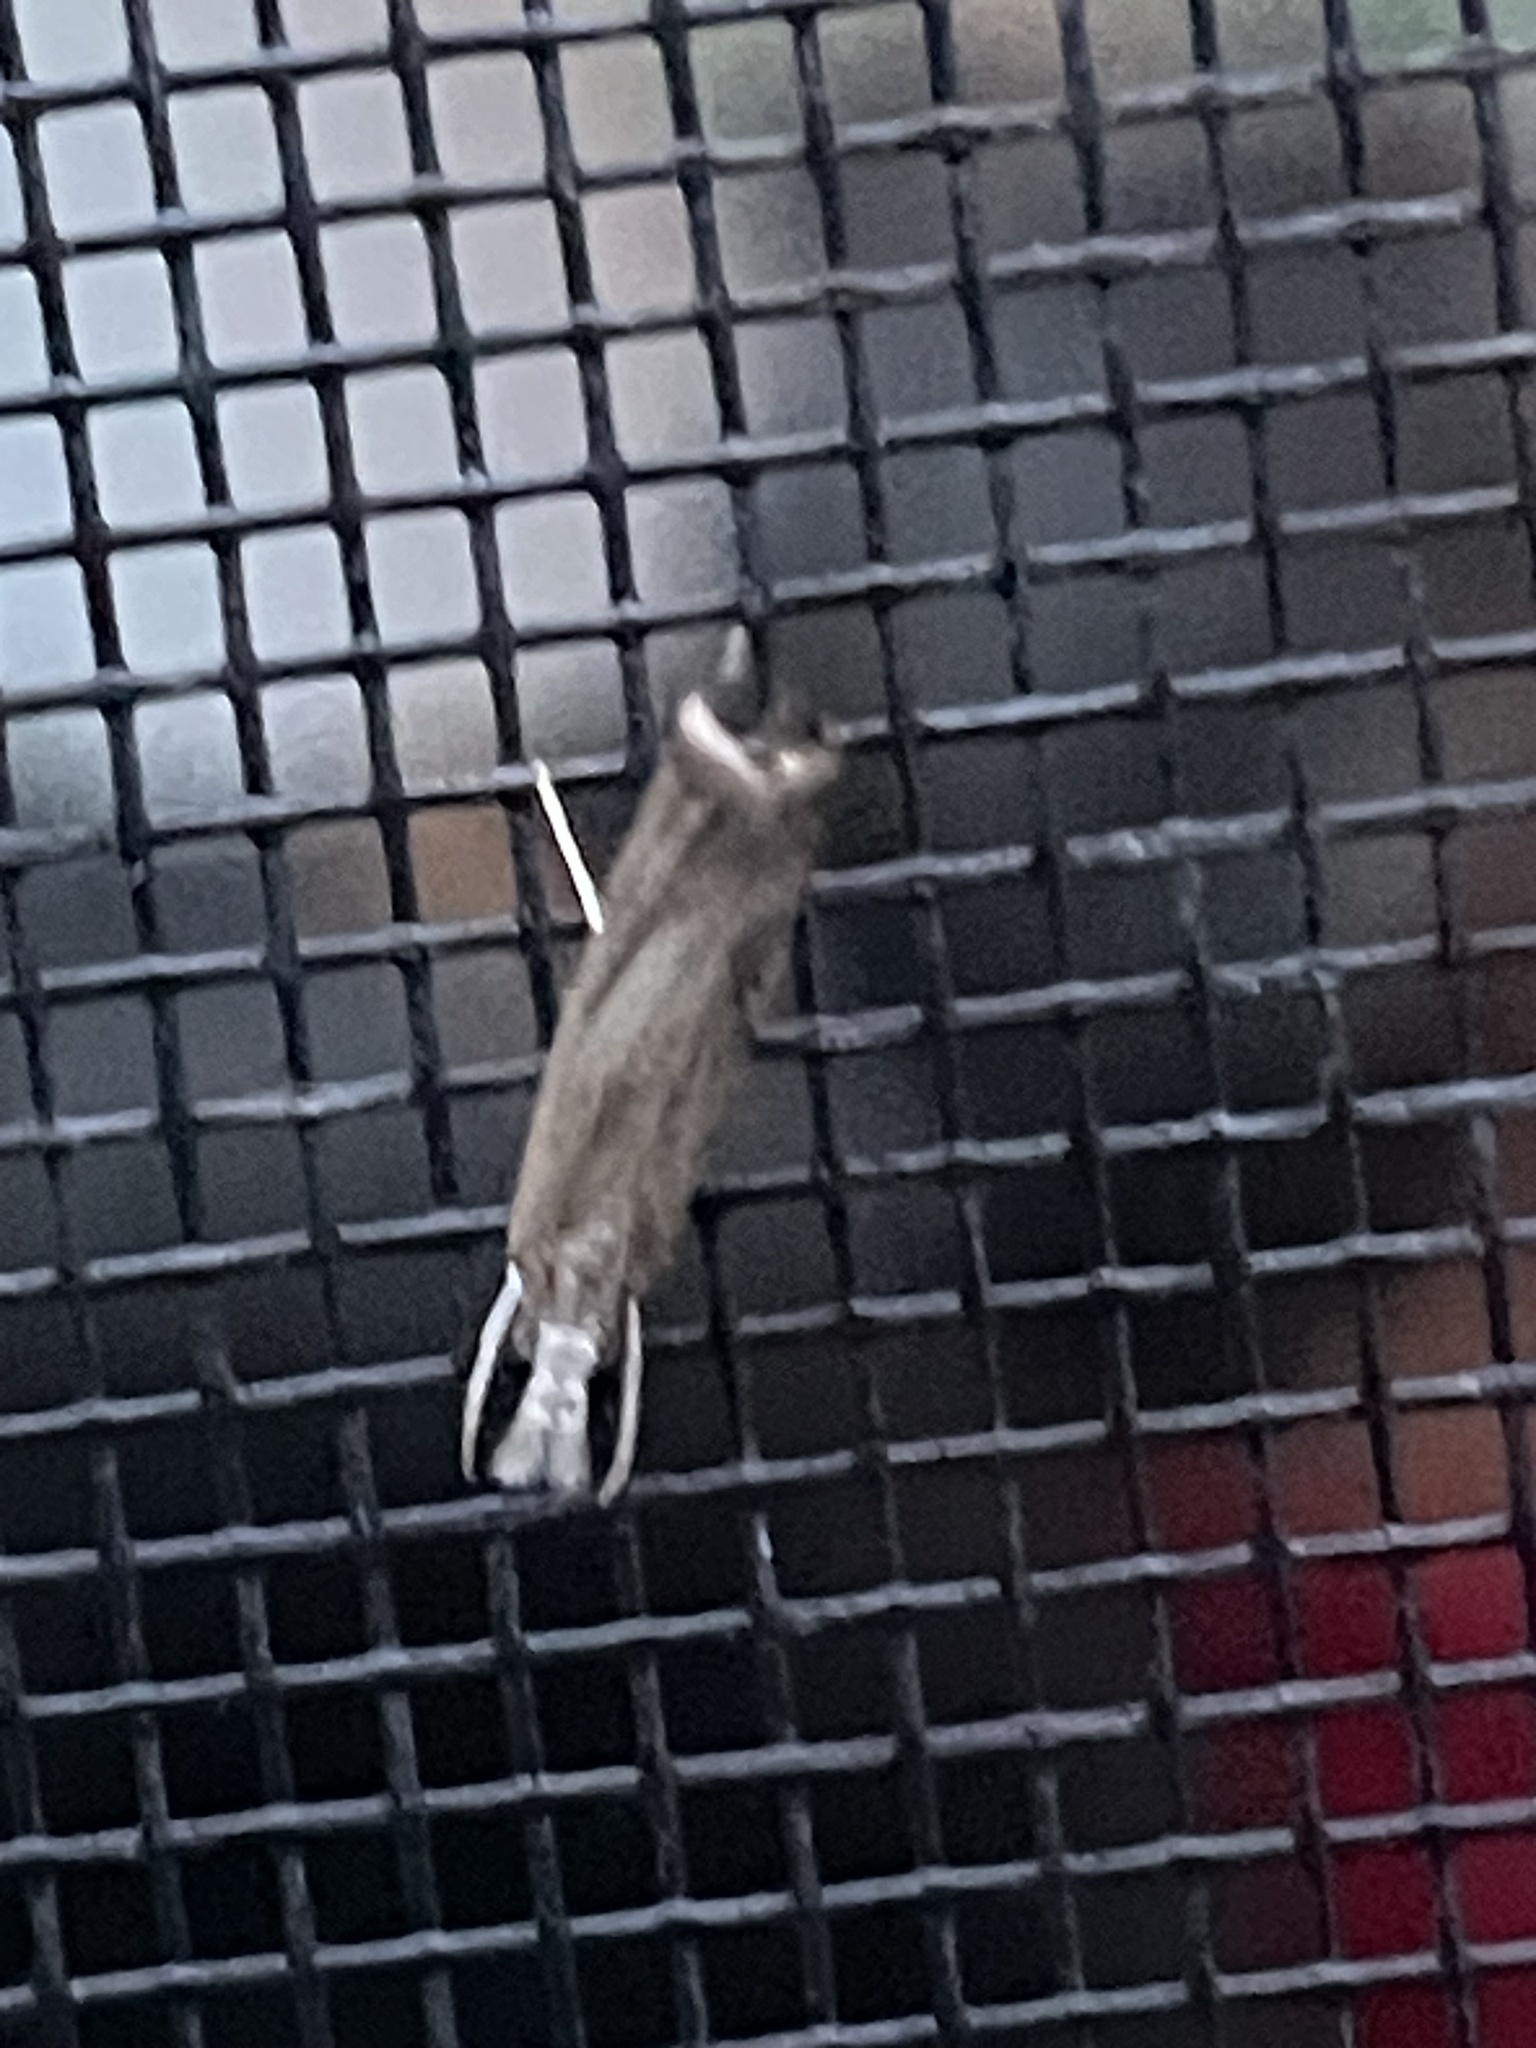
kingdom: Animalia
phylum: Arthropoda
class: Insecta
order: Lepidoptera
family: Crambidae
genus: Parapediasia
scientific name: Parapediasia teterellus
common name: Bluegrass webworm moth
